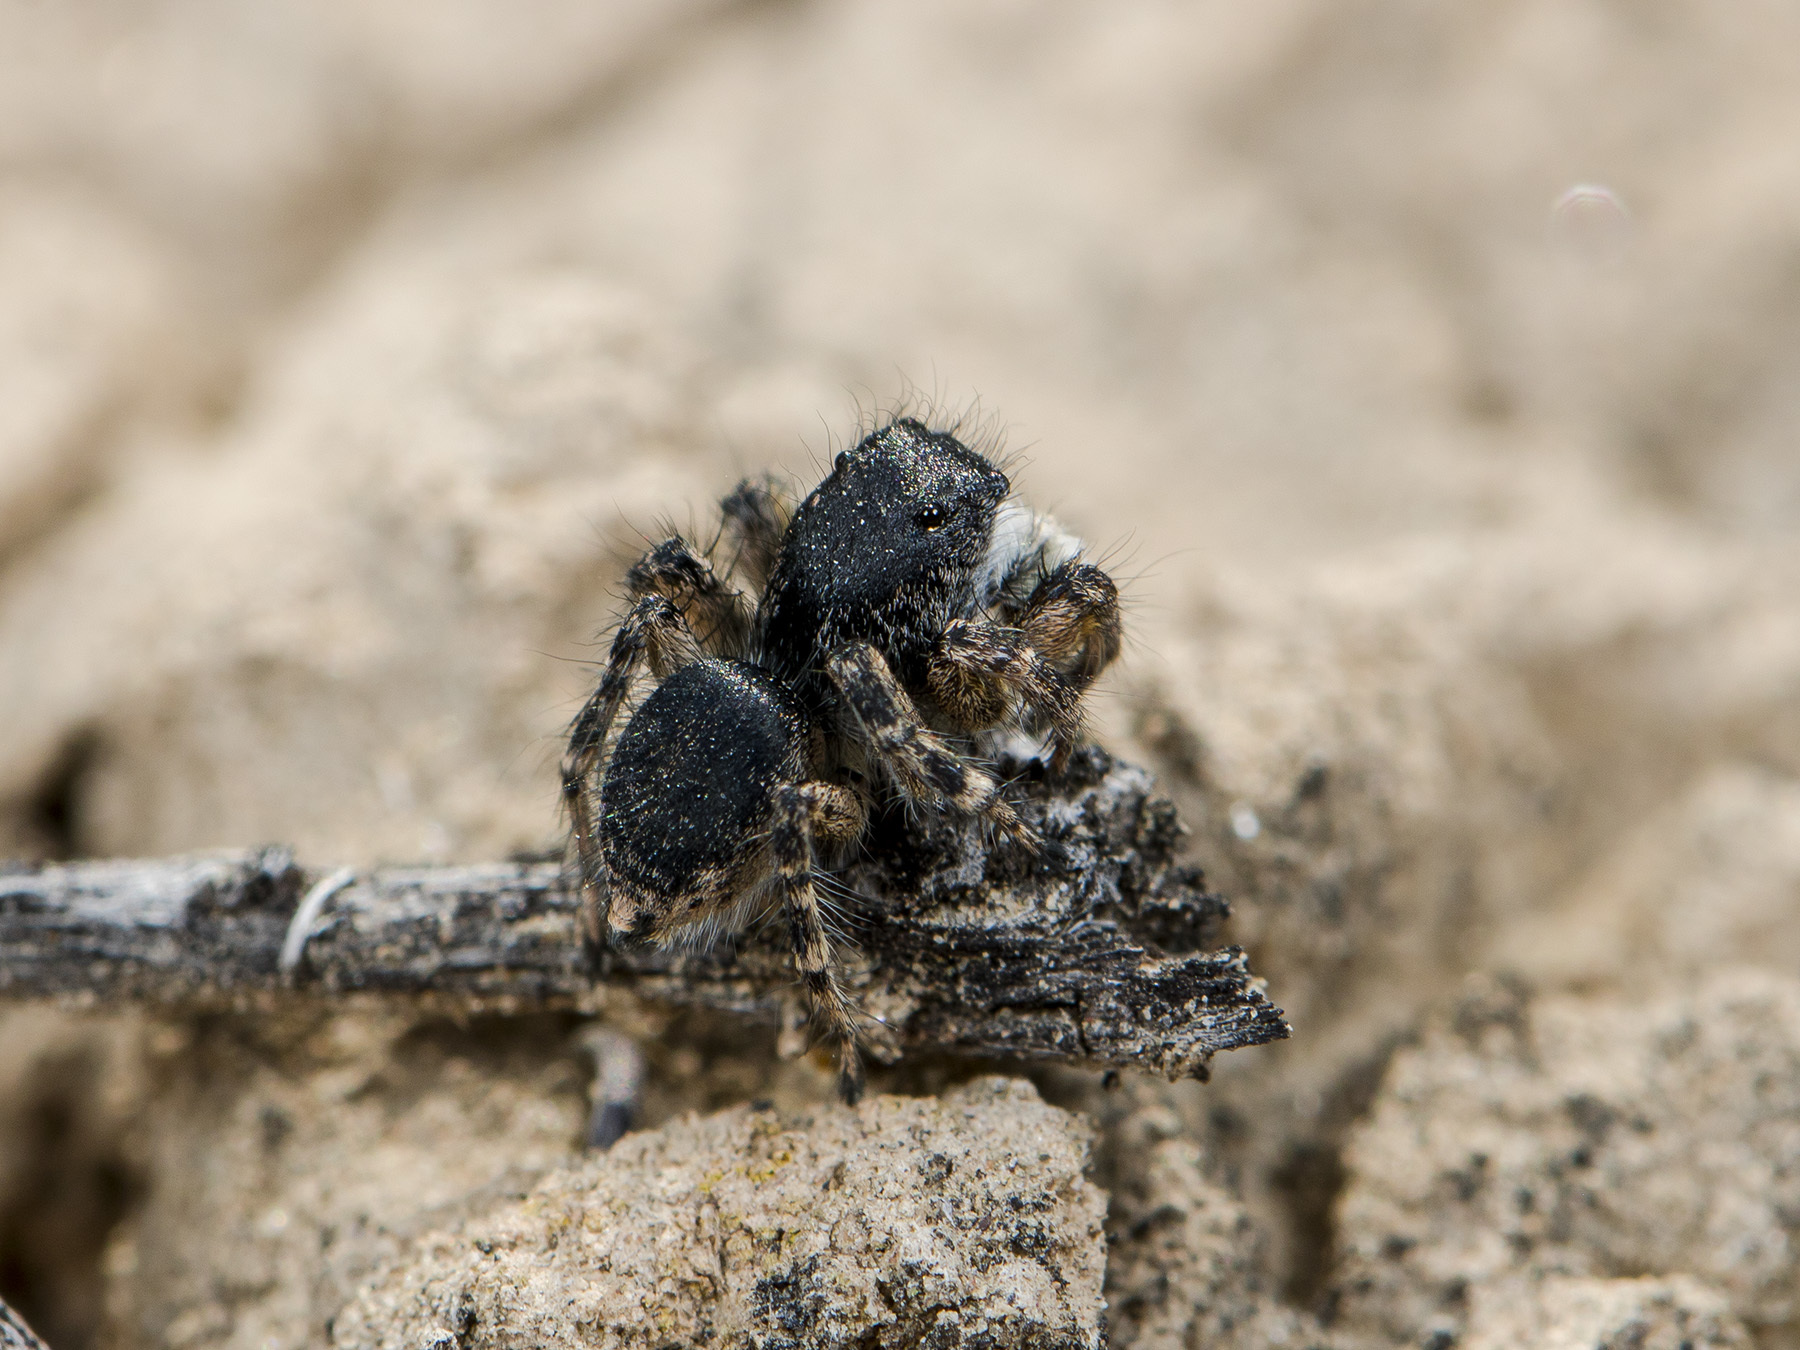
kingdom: Animalia
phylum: Arthropoda
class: Arachnida
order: Araneae
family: Salticidae
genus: Aelurillus
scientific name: Aelurillus dubatolovi
